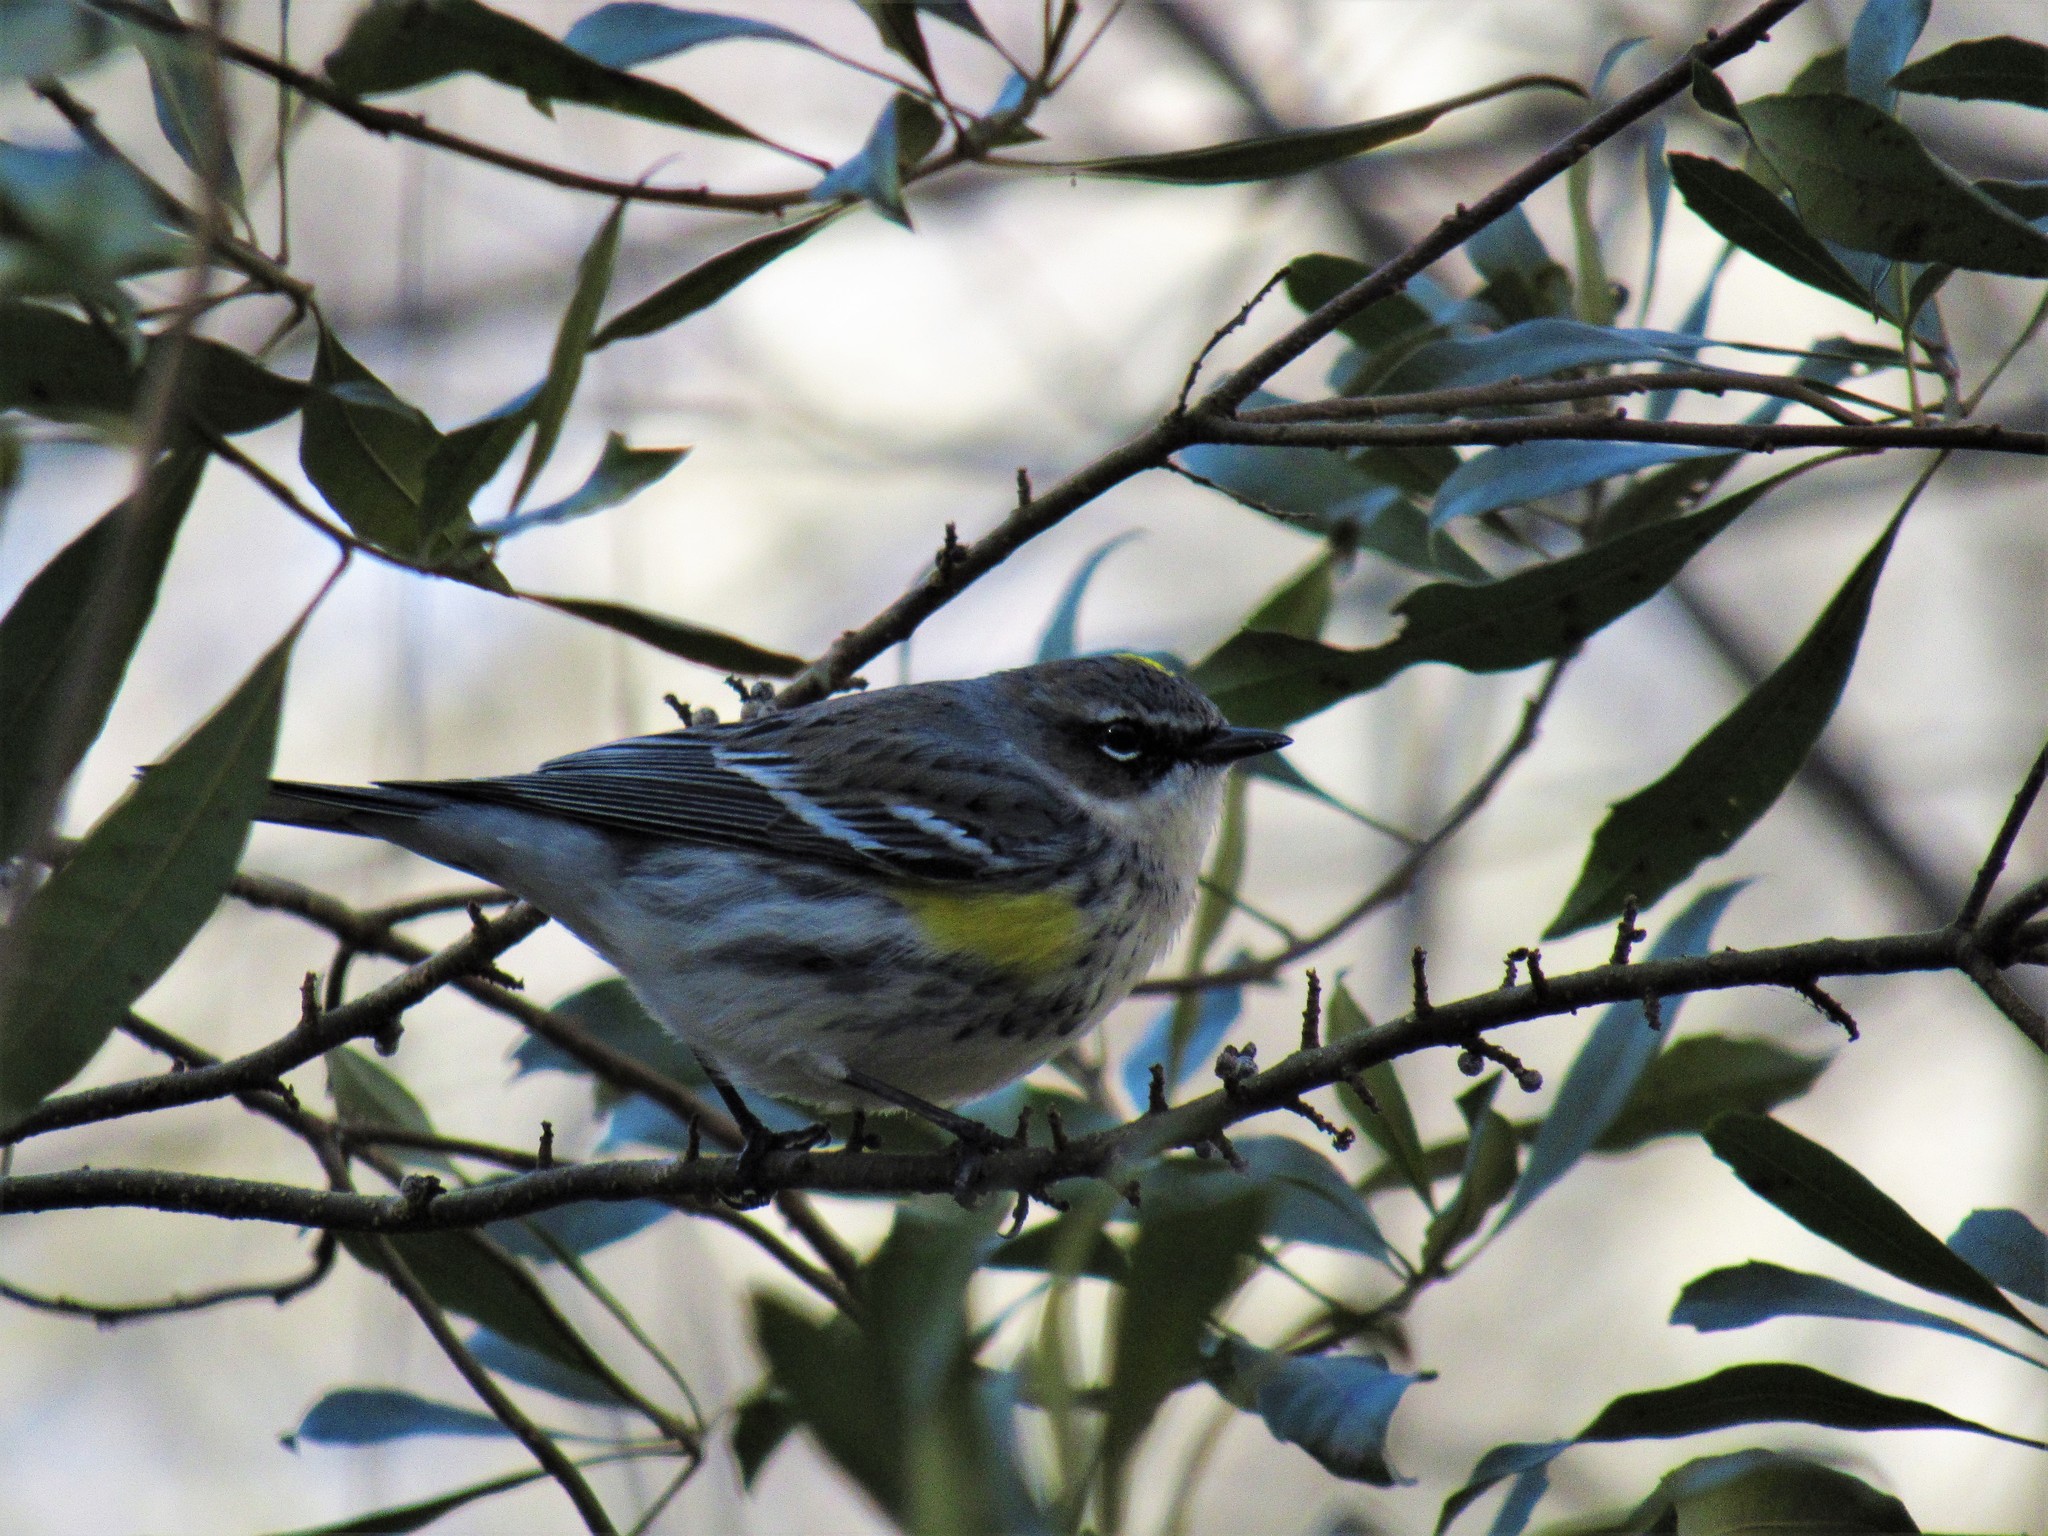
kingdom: Animalia
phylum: Chordata
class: Aves
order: Passeriformes
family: Parulidae
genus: Setophaga
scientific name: Setophaga coronata
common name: Myrtle warbler
